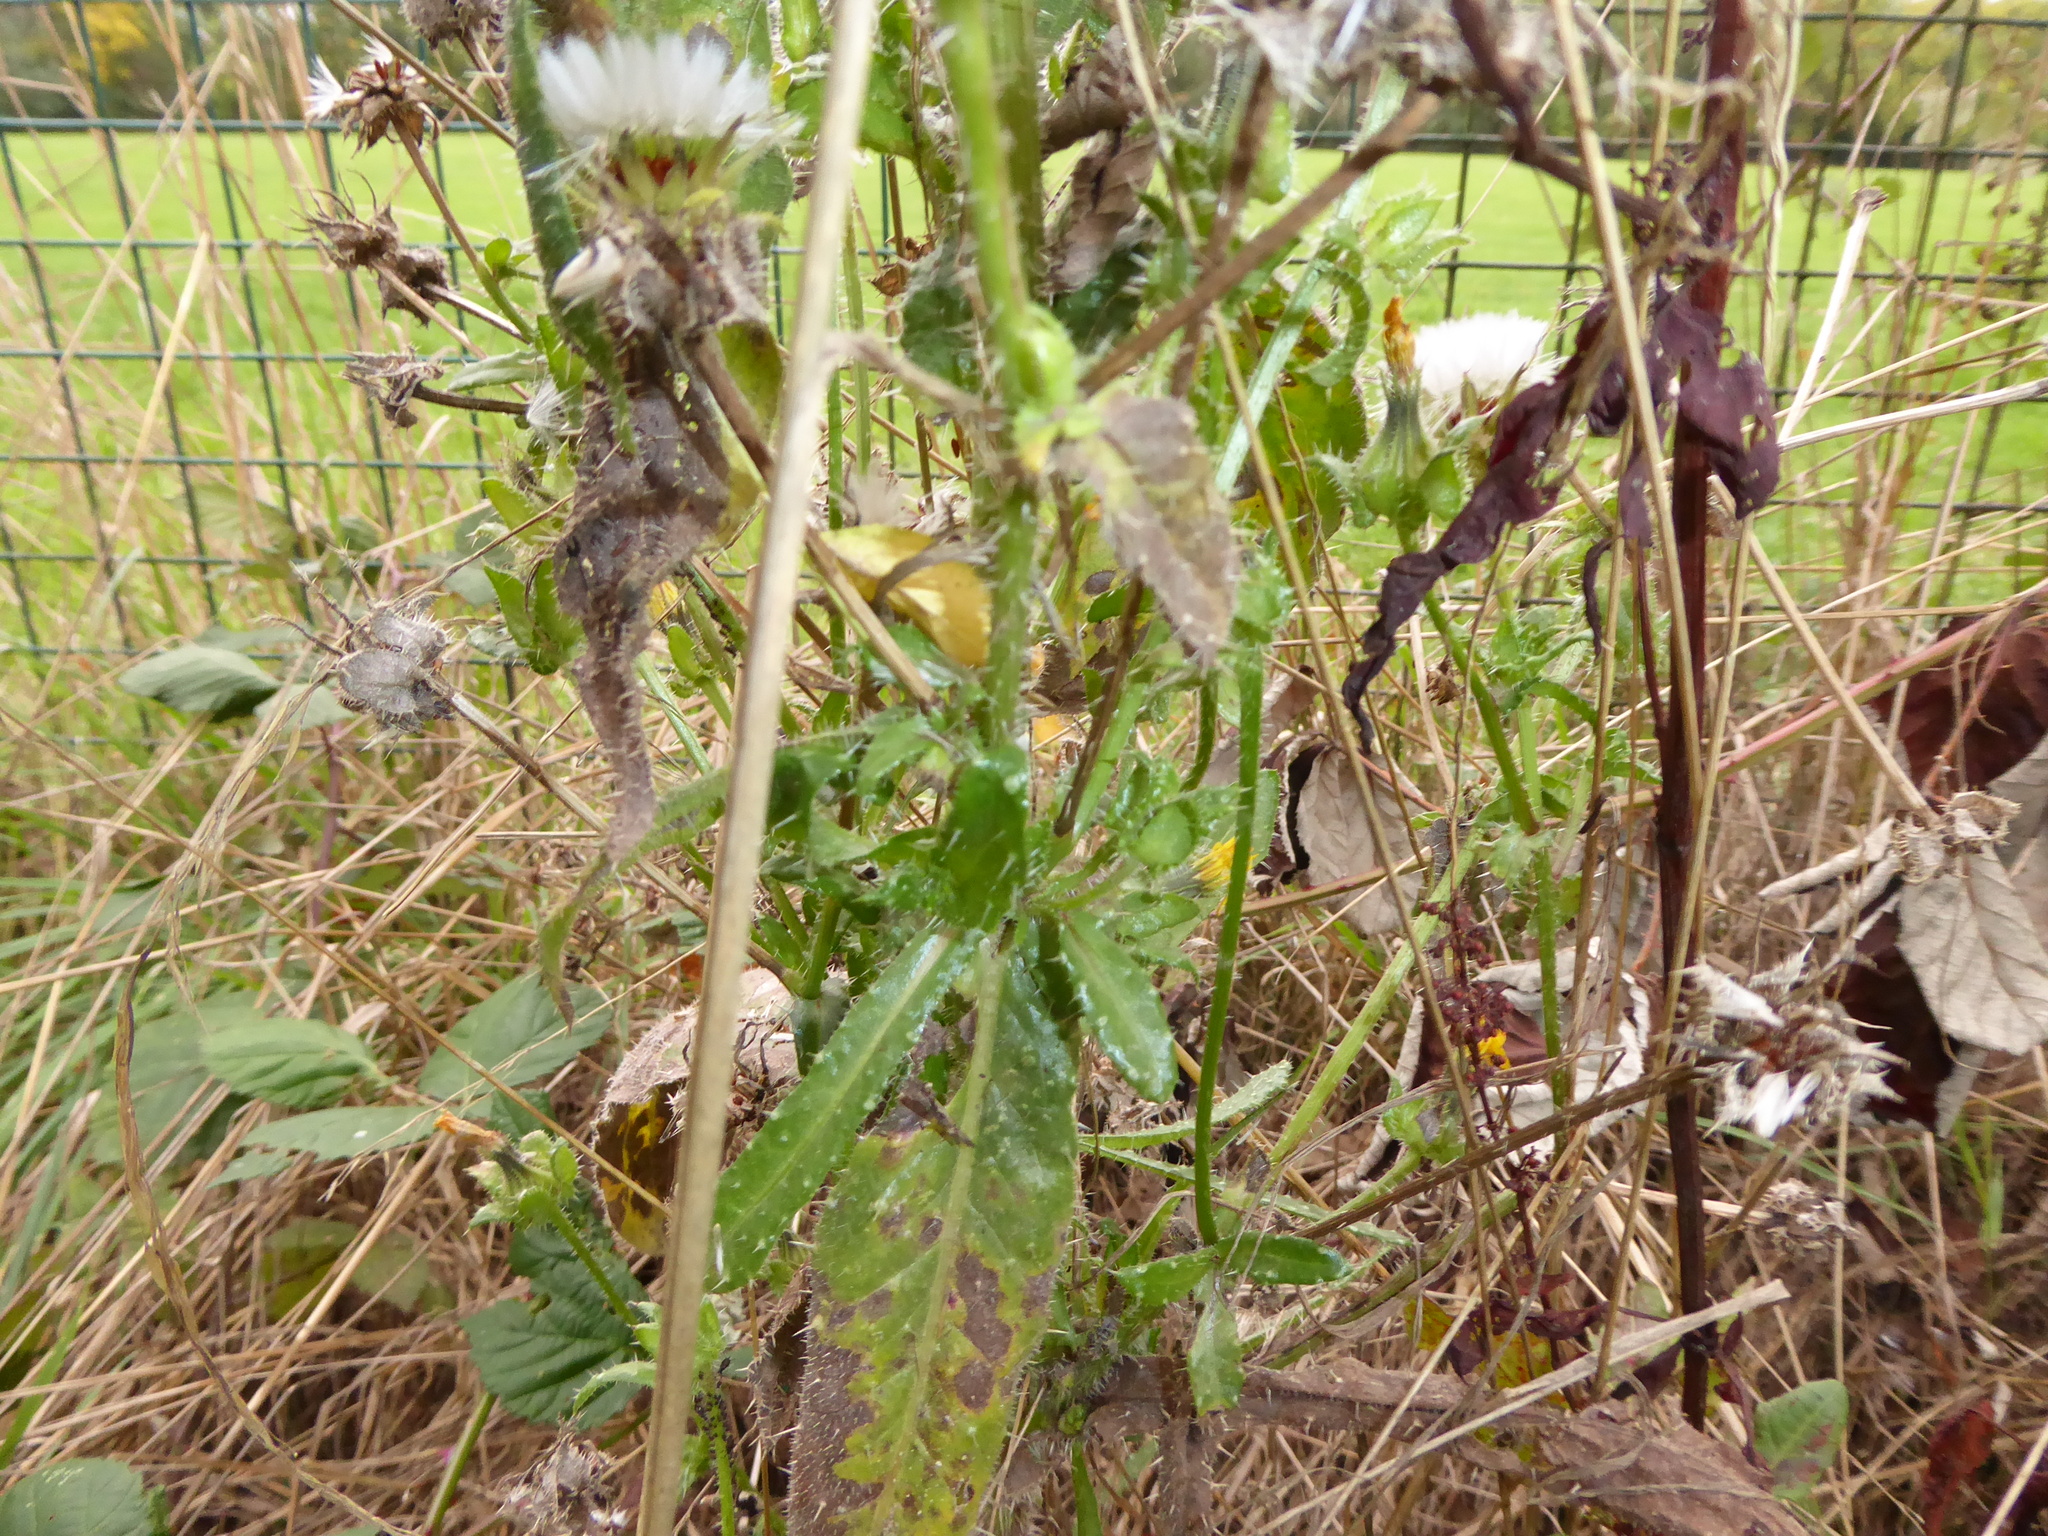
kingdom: Plantae
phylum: Tracheophyta
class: Magnoliopsida
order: Asterales
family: Asteraceae
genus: Helminthotheca
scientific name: Helminthotheca echioides
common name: Ox-tongue
